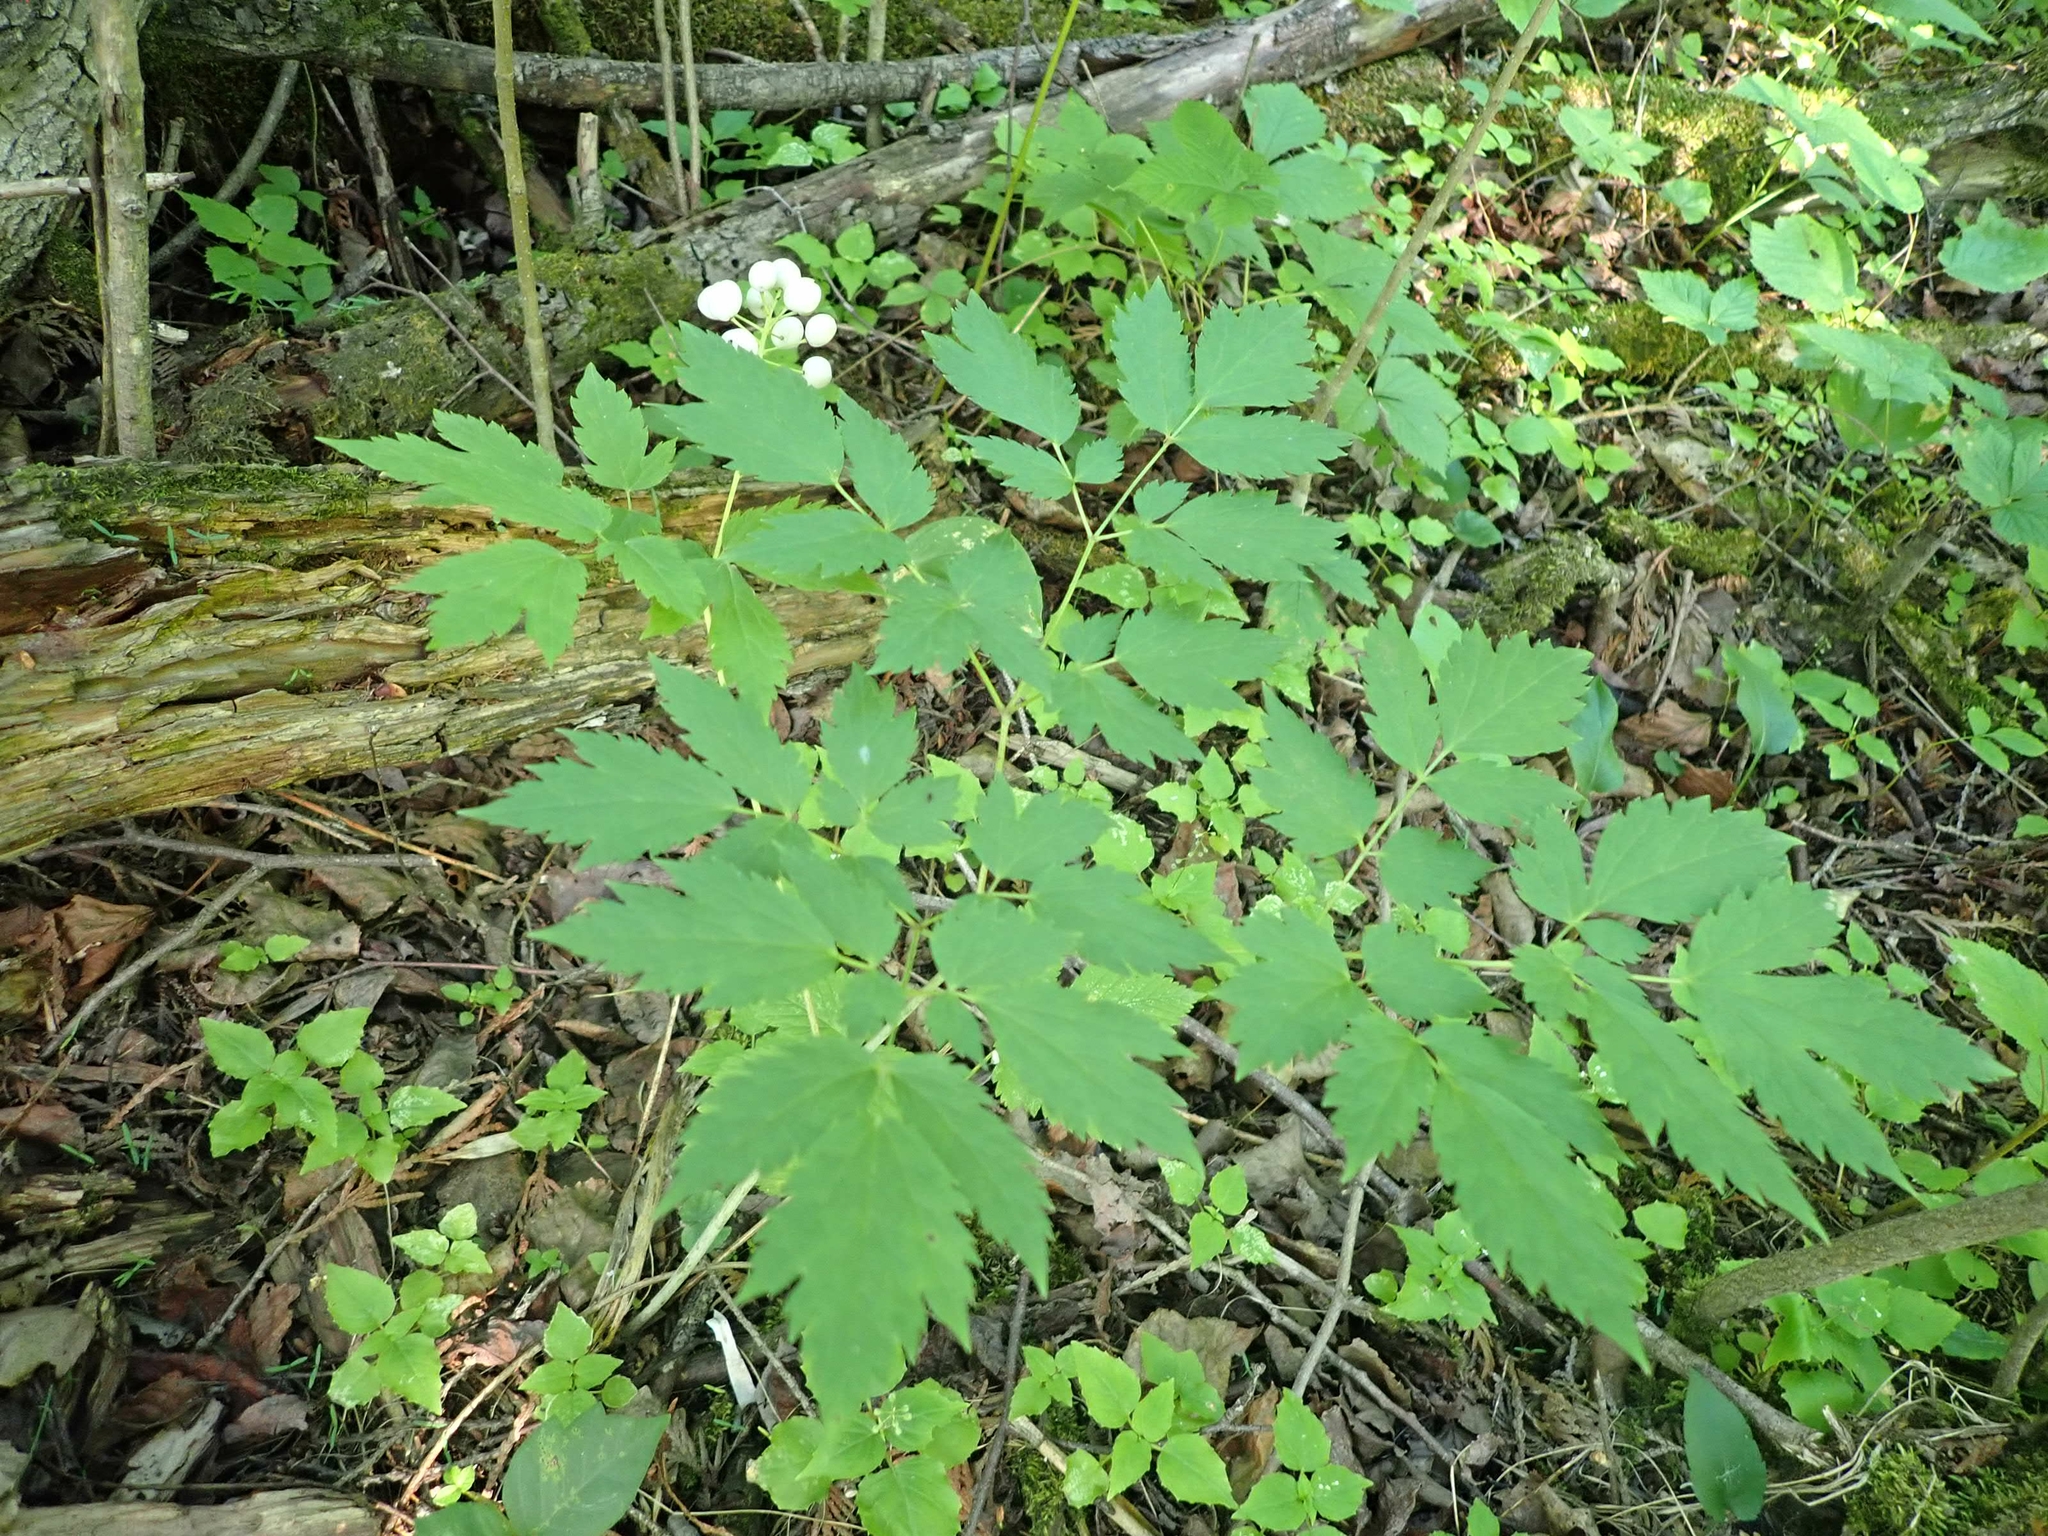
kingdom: Plantae
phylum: Tracheophyta
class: Magnoliopsida
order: Ranunculales
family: Ranunculaceae
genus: Actaea
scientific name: Actaea rubra
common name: Red baneberry
